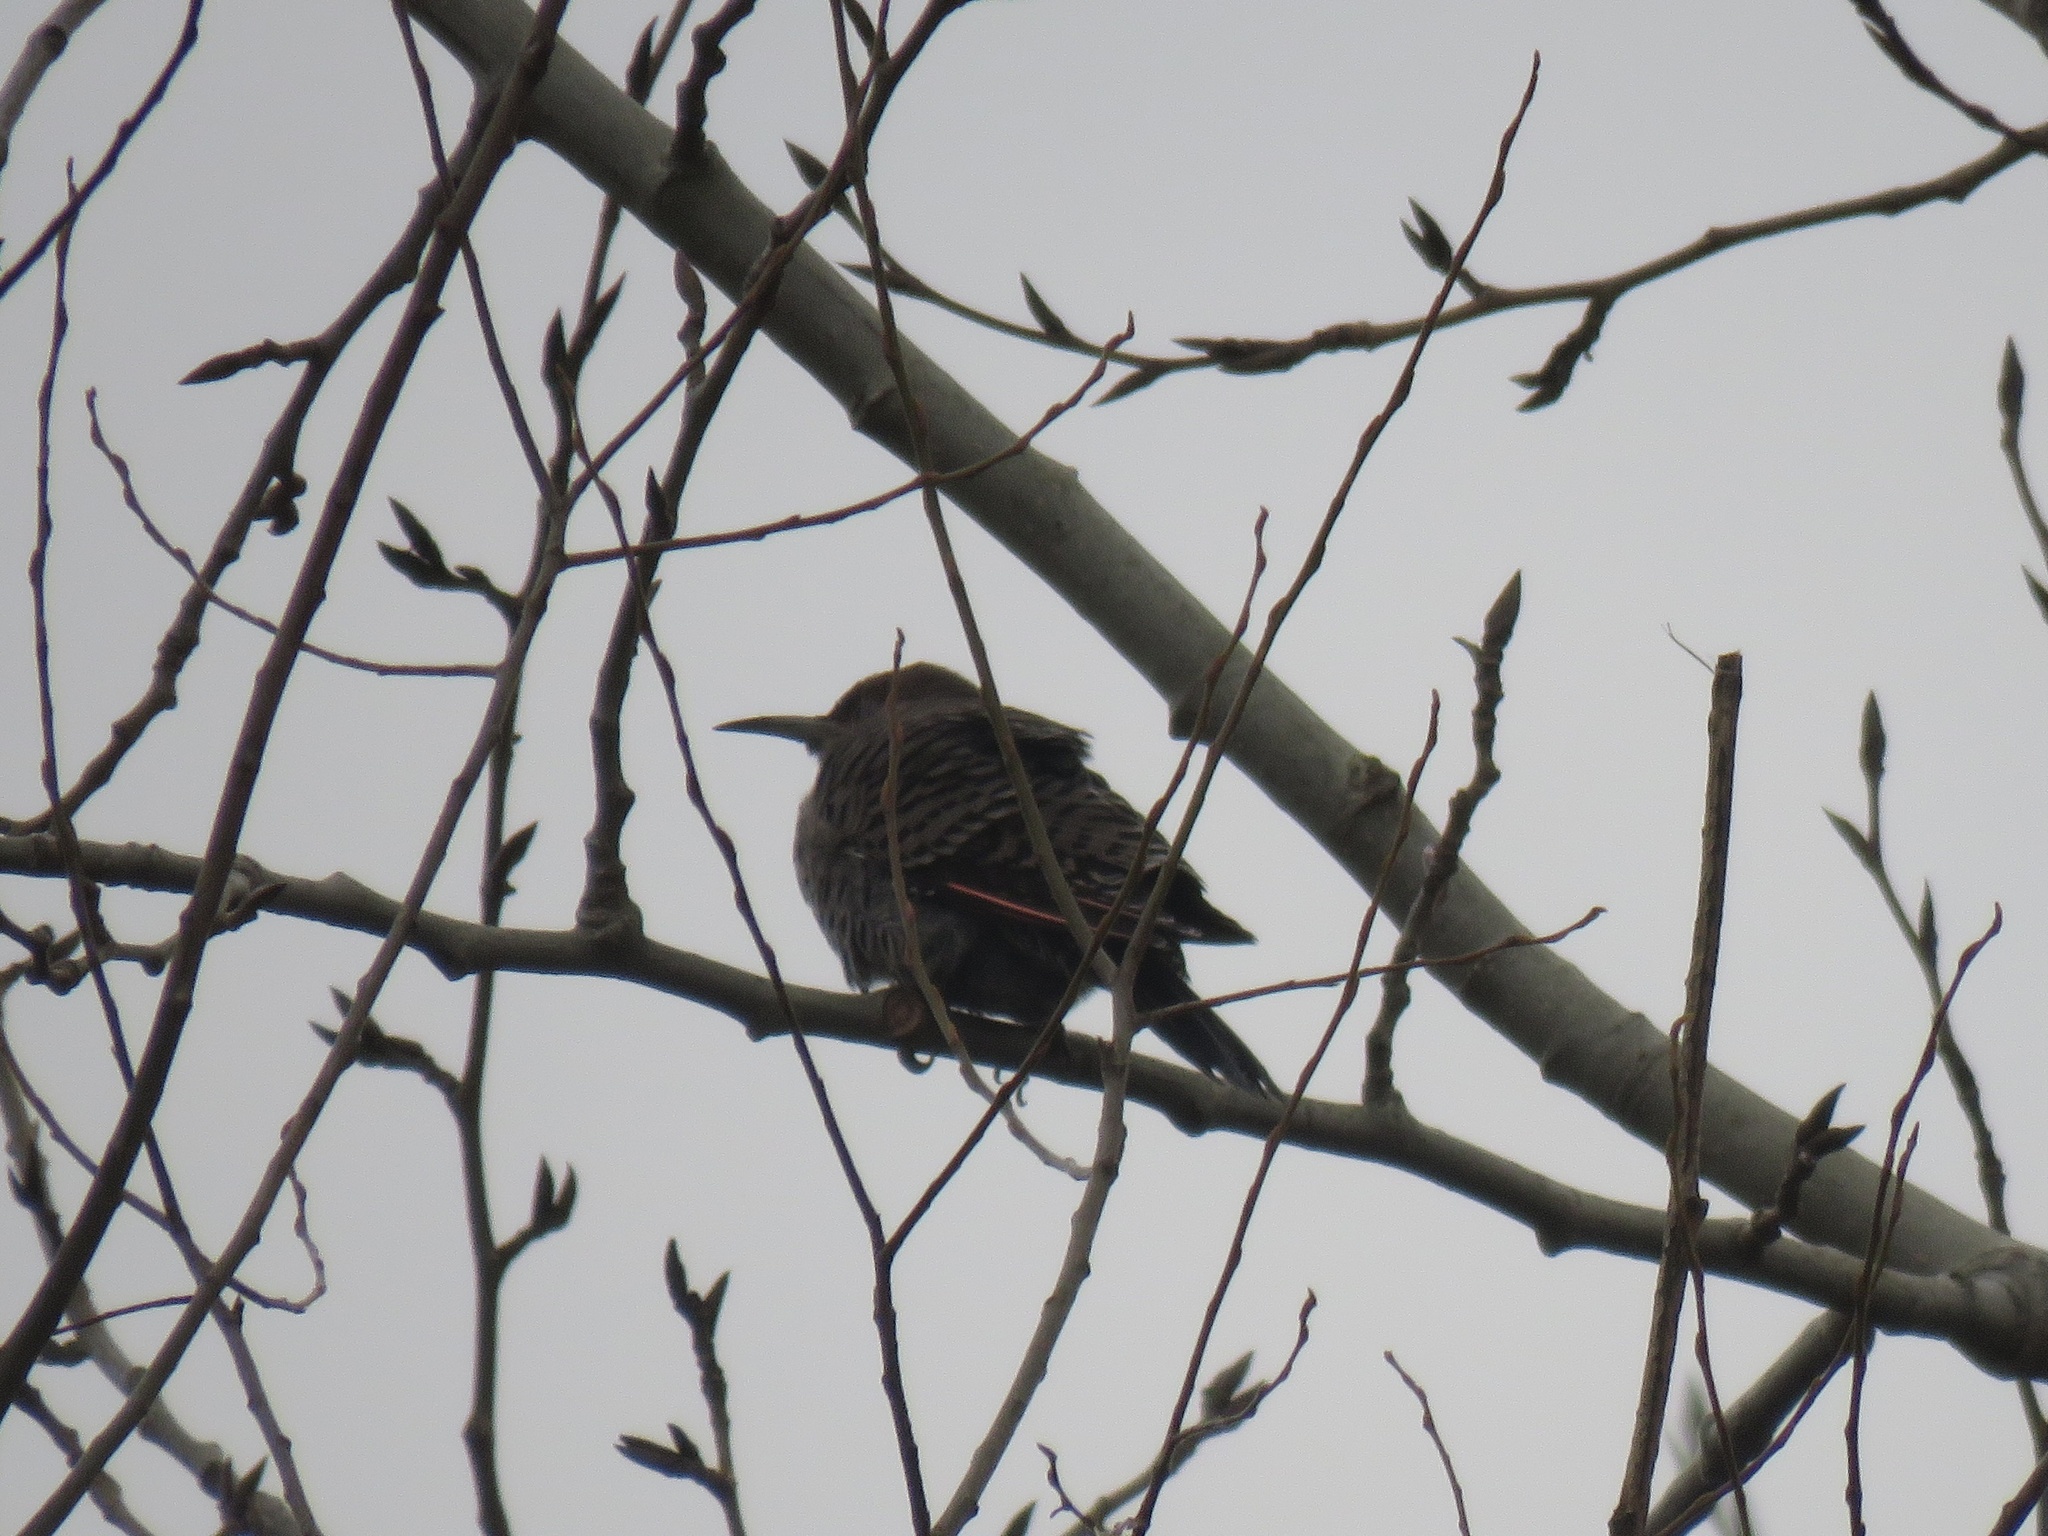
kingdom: Animalia
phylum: Chordata
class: Aves
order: Piciformes
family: Picidae
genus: Colaptes
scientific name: Colaptes auratus
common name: Northern flicker
